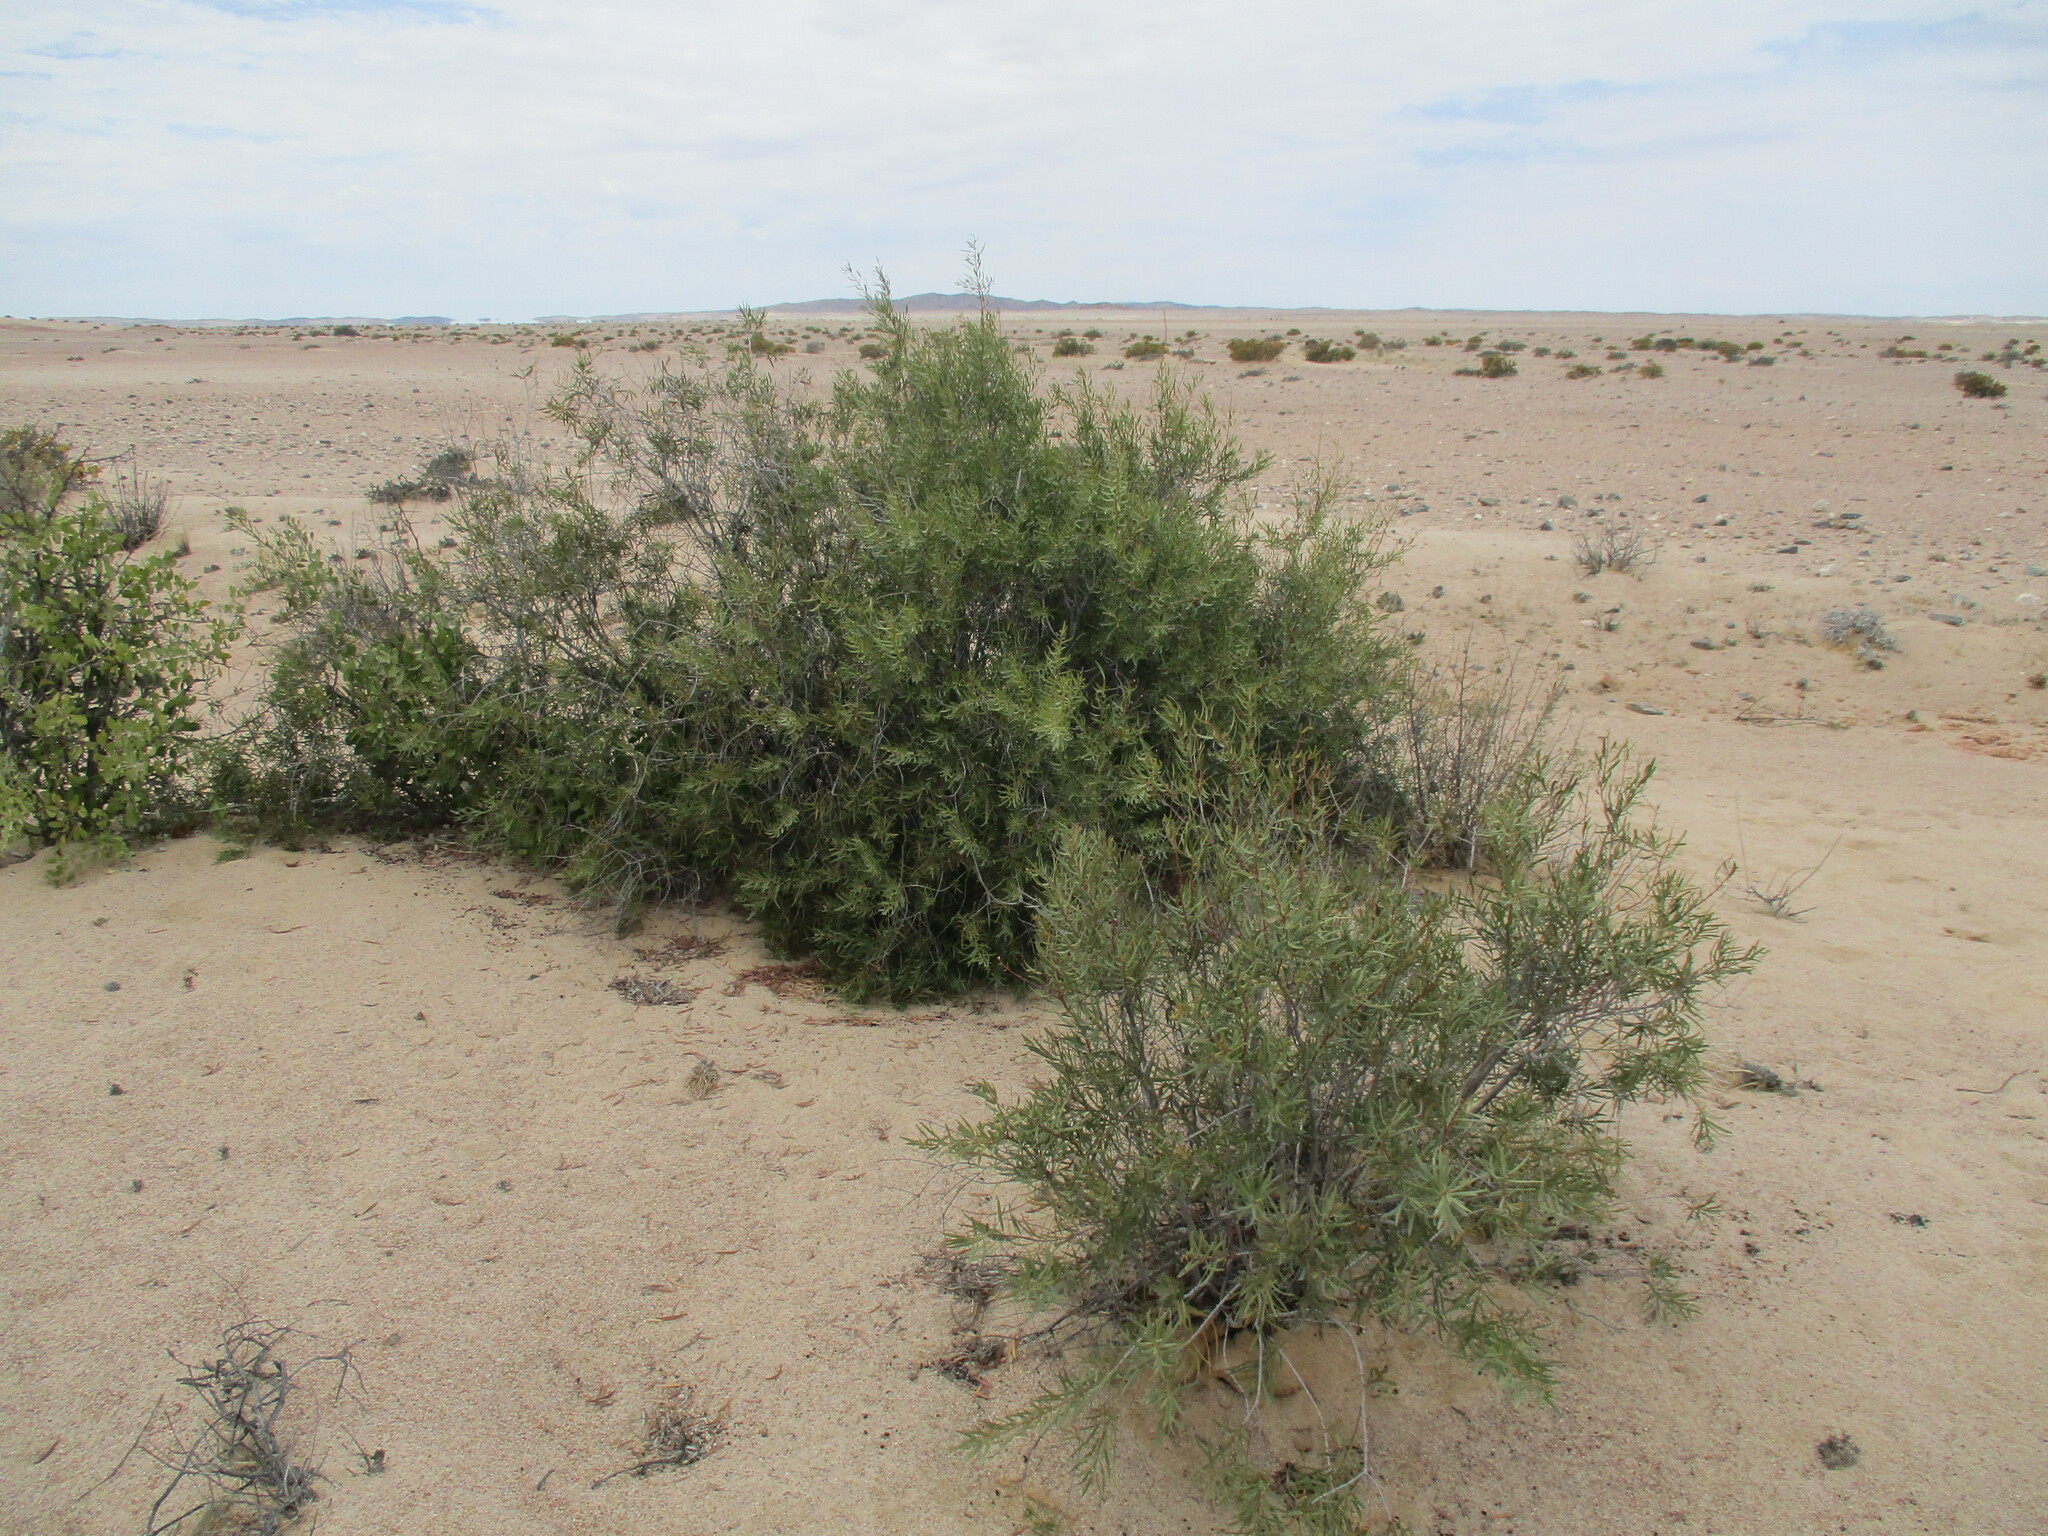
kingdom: Plantae
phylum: Tracheophyta
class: Magnoliopsida
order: Ericales
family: Ebenaceae
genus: Euclea
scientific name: Euclea pseudebenus
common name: Black ebony
